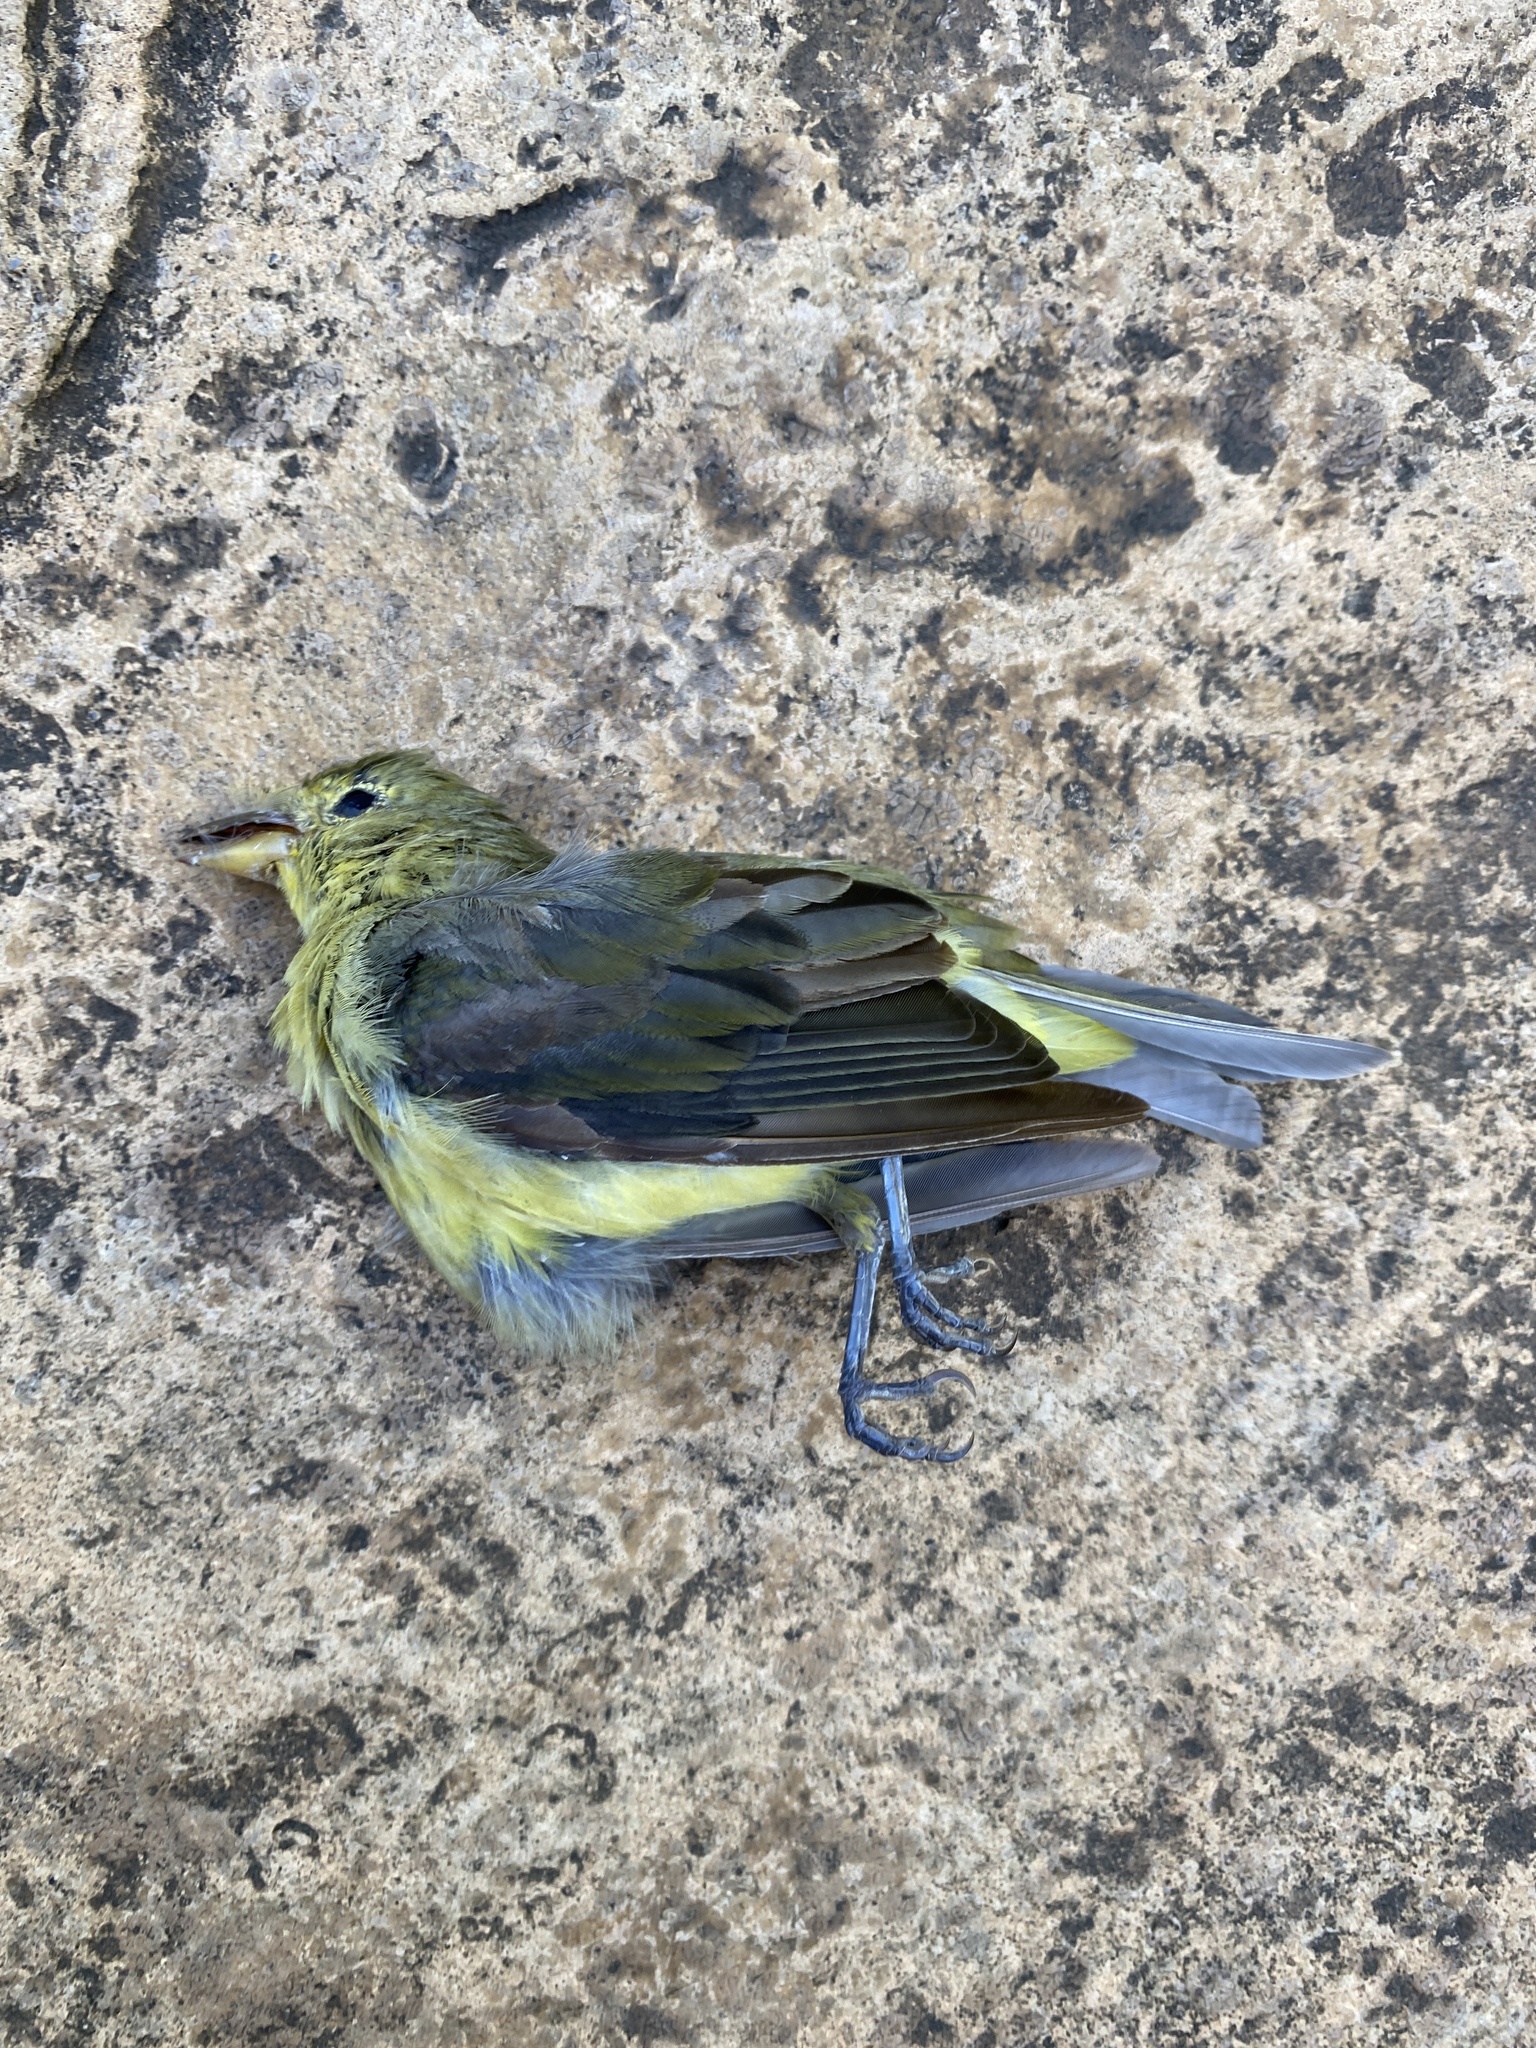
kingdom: Animalia
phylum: Chordata
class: Aves
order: Passeriformes
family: Cardinalidae
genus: Piranga
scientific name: Piranga olivacea
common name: Scarlet tanager
